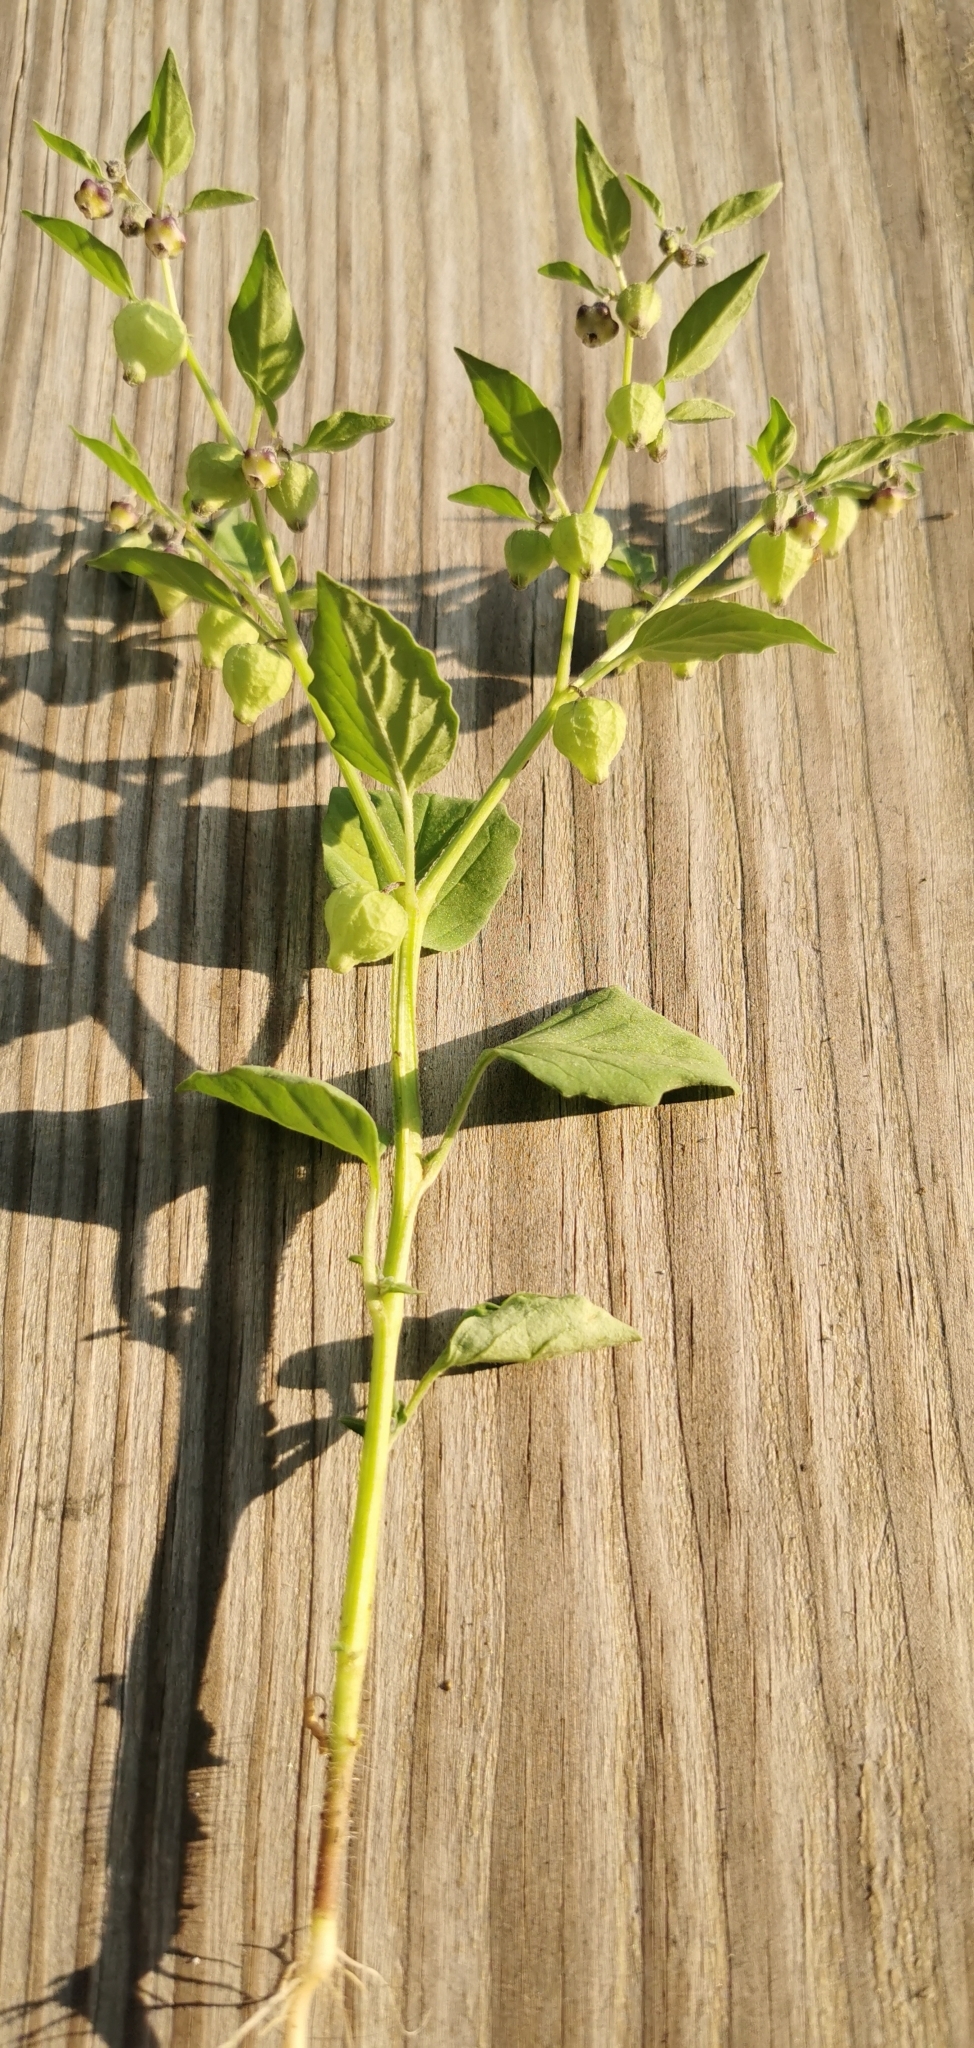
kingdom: Plantae
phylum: Tracheophyta
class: Magnoliopsida
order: Solanales
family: Solanaceae
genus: Physalis
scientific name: Physalis solanacea
